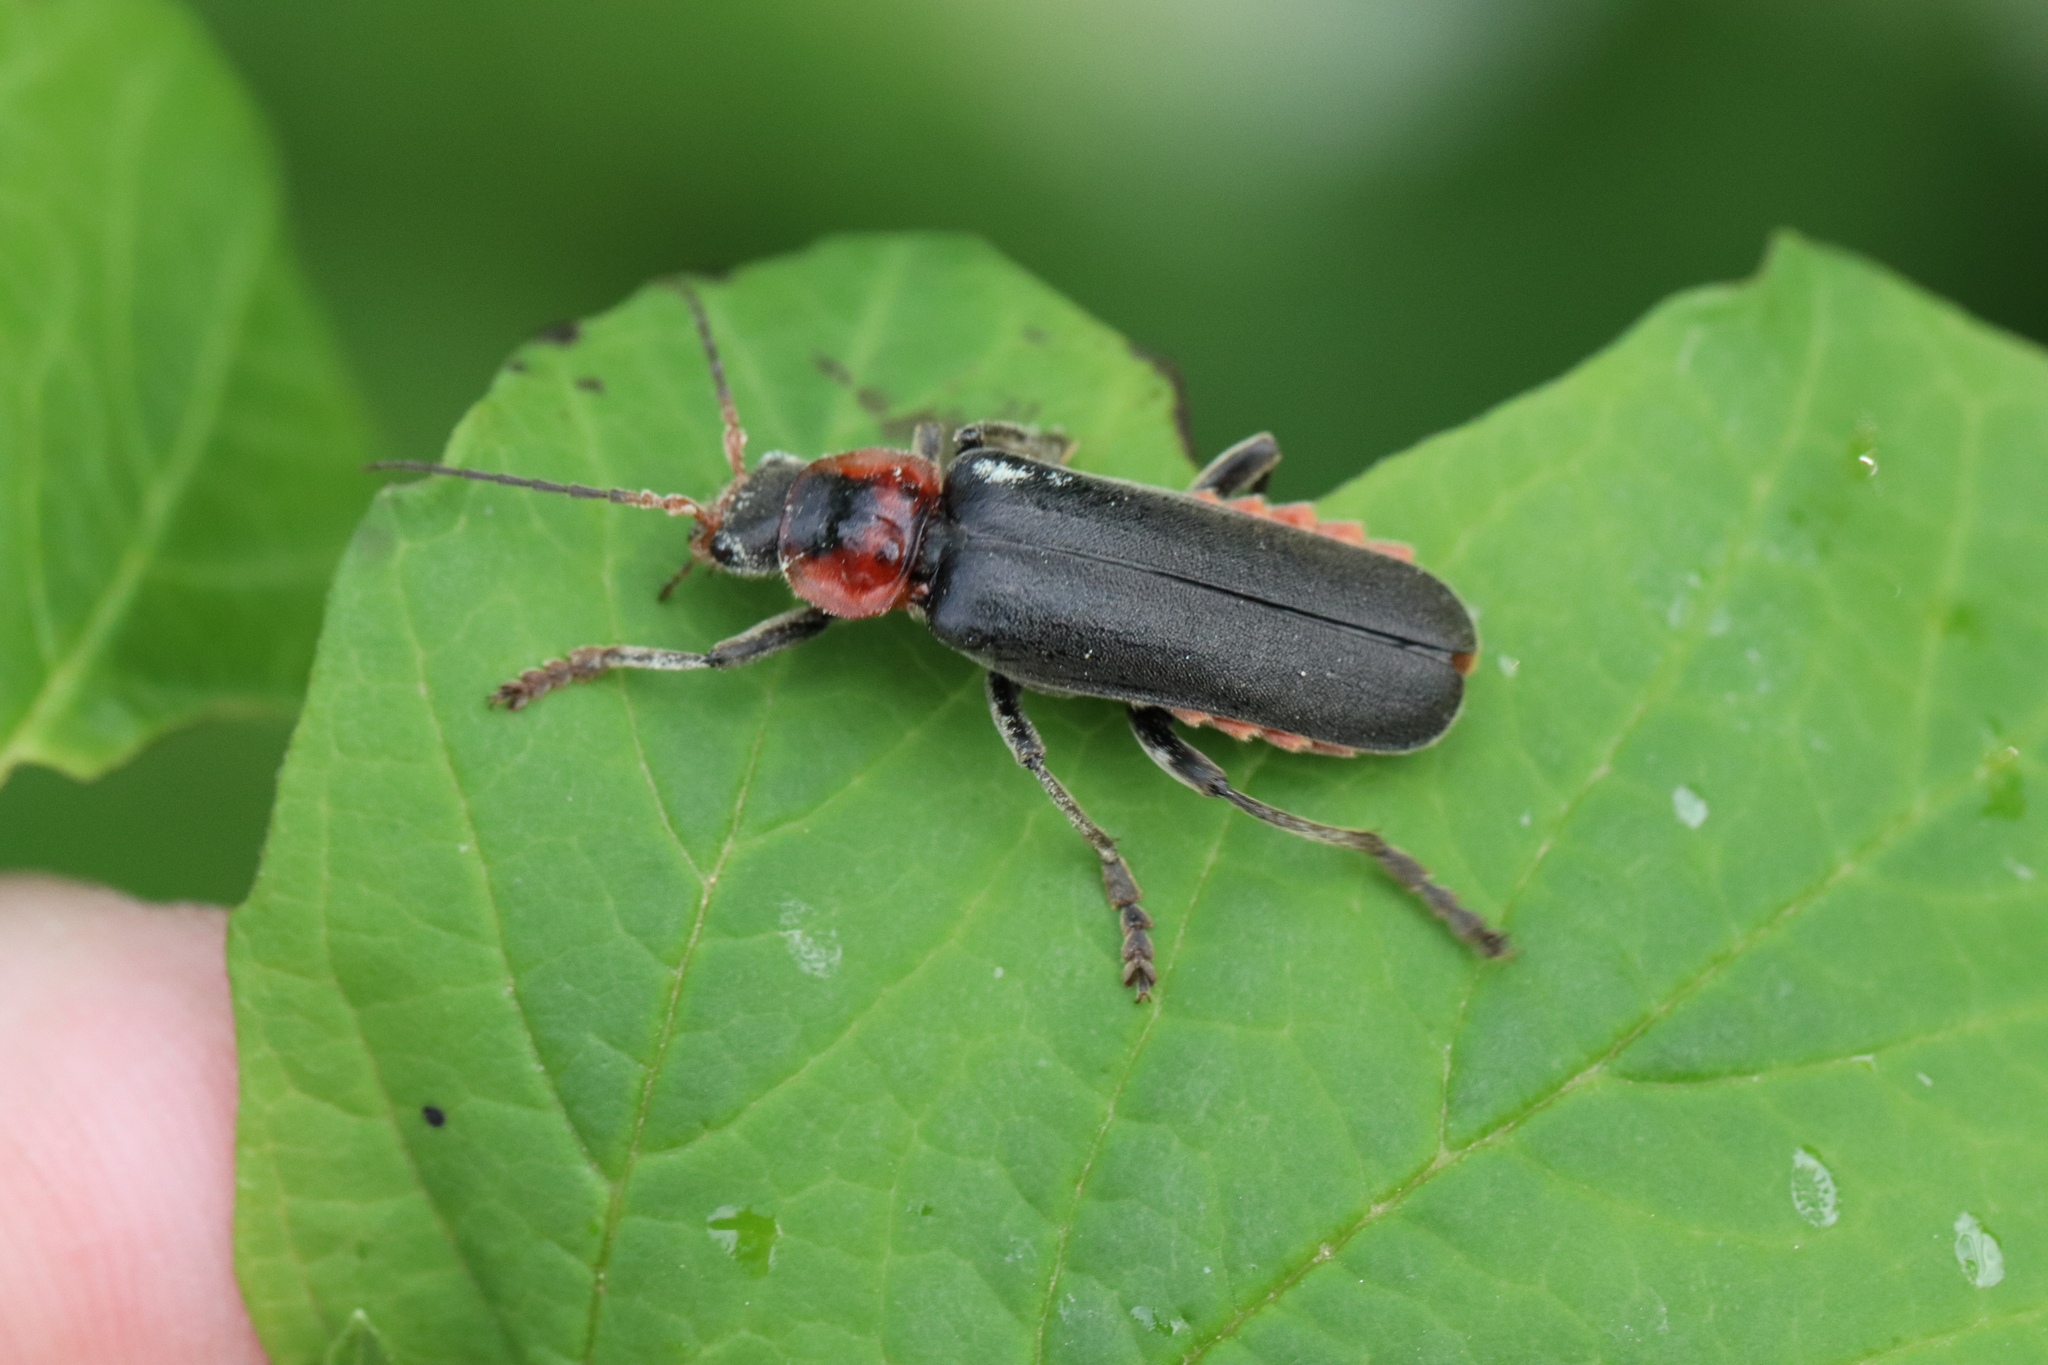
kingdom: Animalia
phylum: Arthropoda
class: Insecta
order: Coleoptera
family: Cantharidae
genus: Cantharis
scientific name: Cantharis fusca
